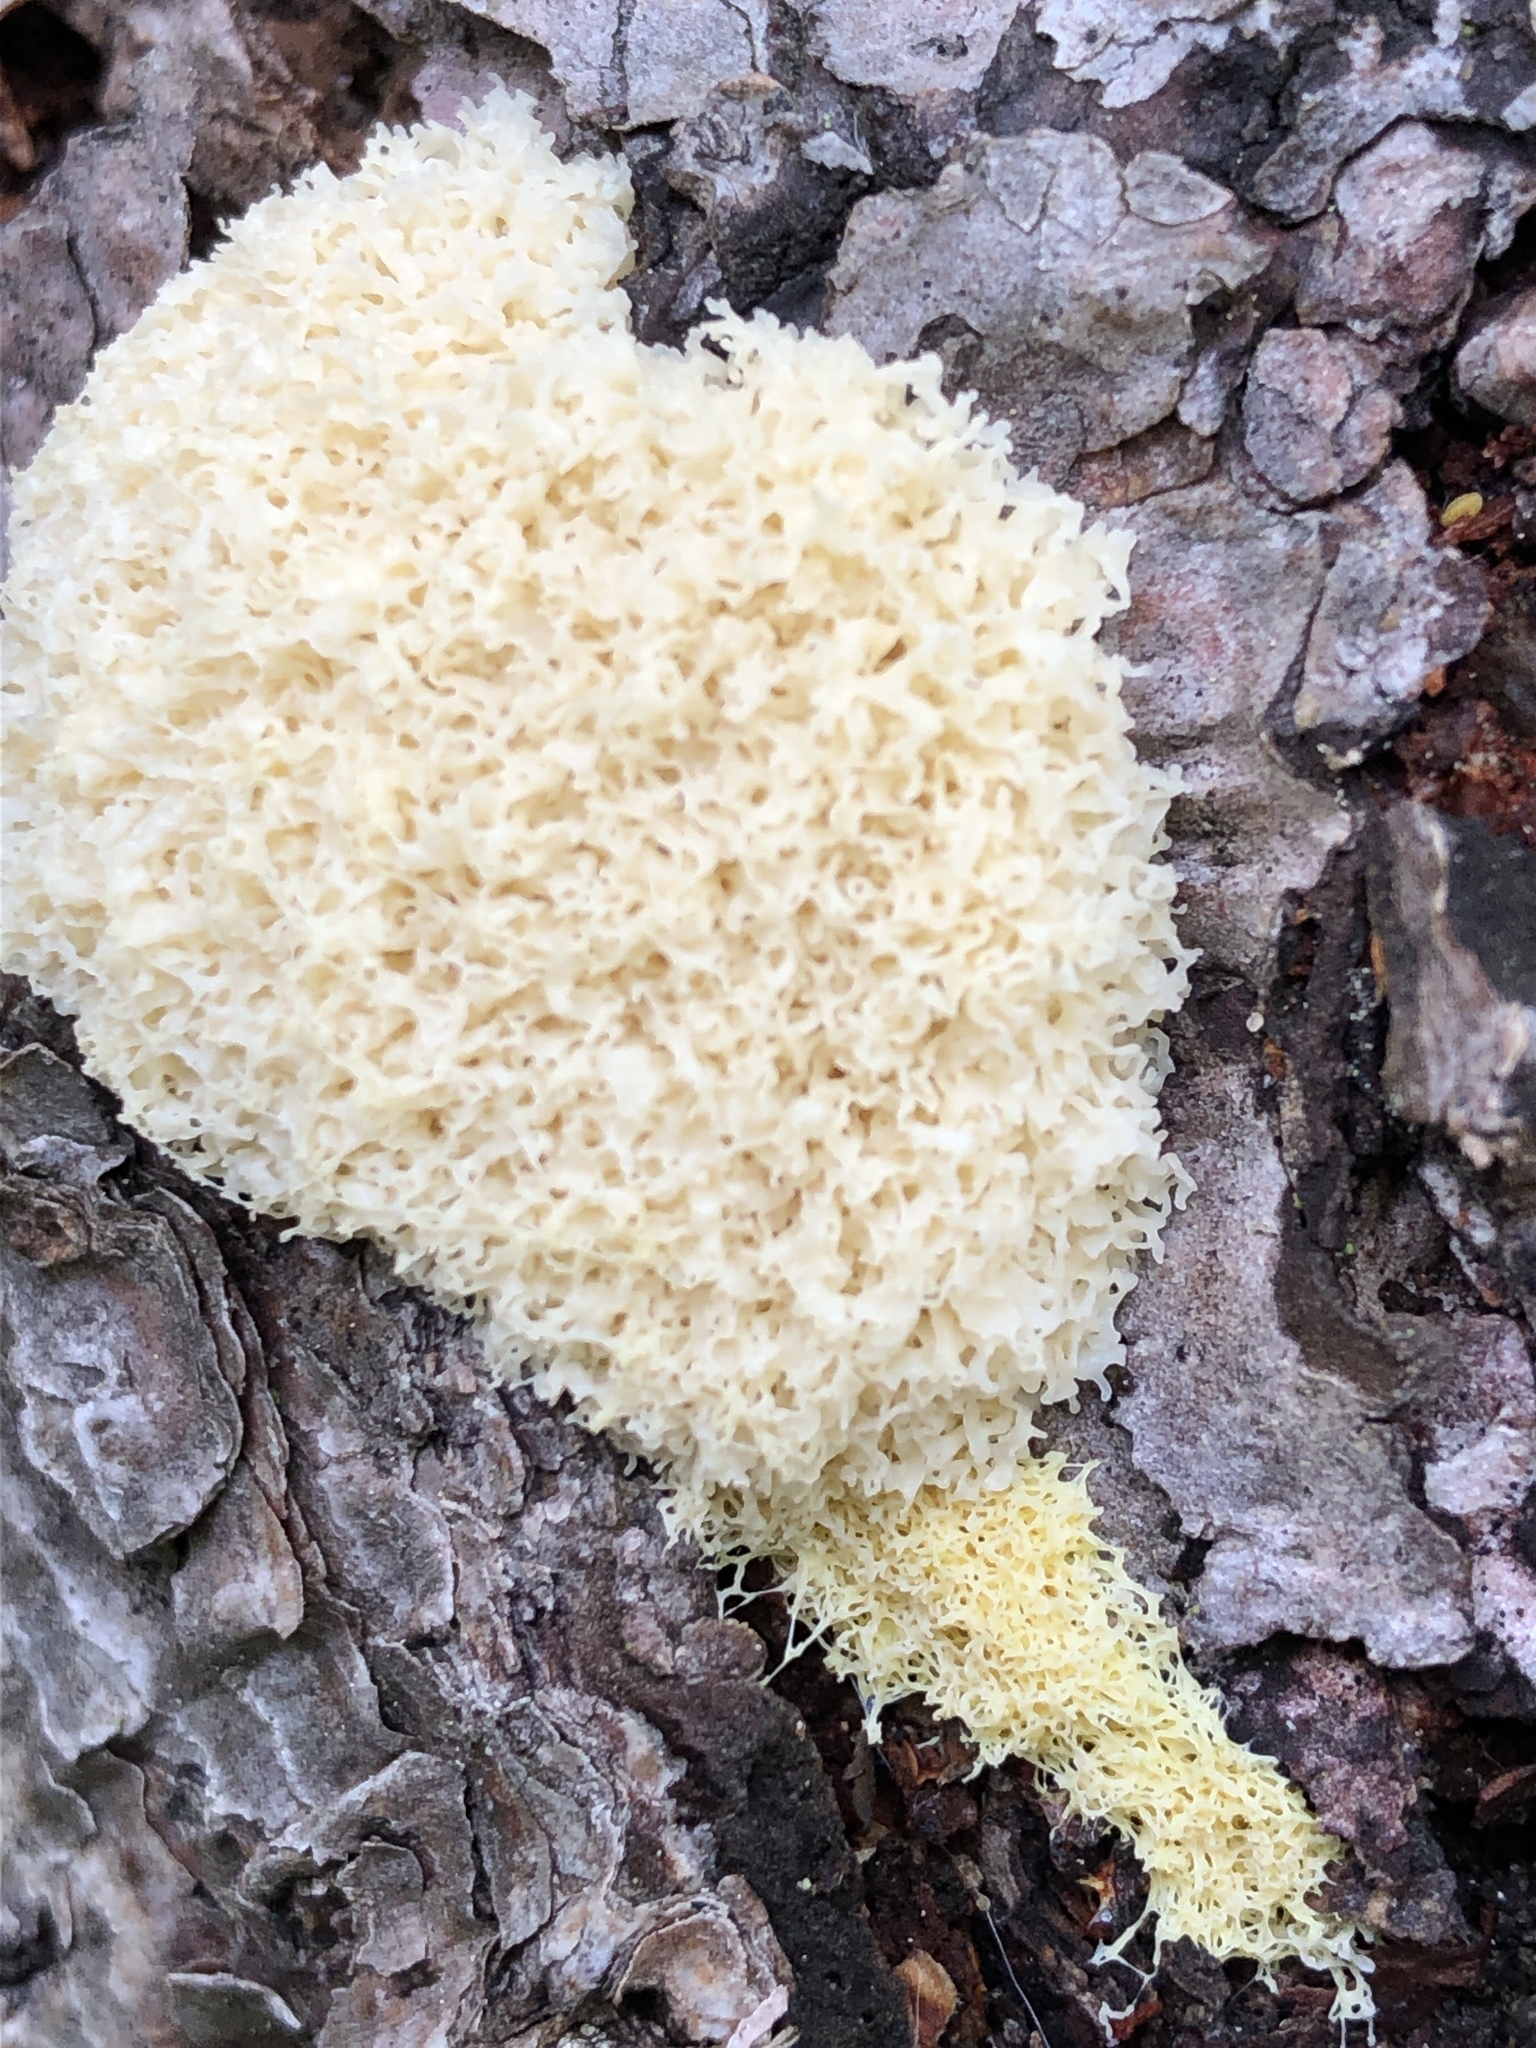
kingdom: Protozoa
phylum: Mycetozoa
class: Myxomycetes
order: Physarales
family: Physaraceae
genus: Fuligo
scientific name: Fuligo septica
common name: Dog vomit slime mold
